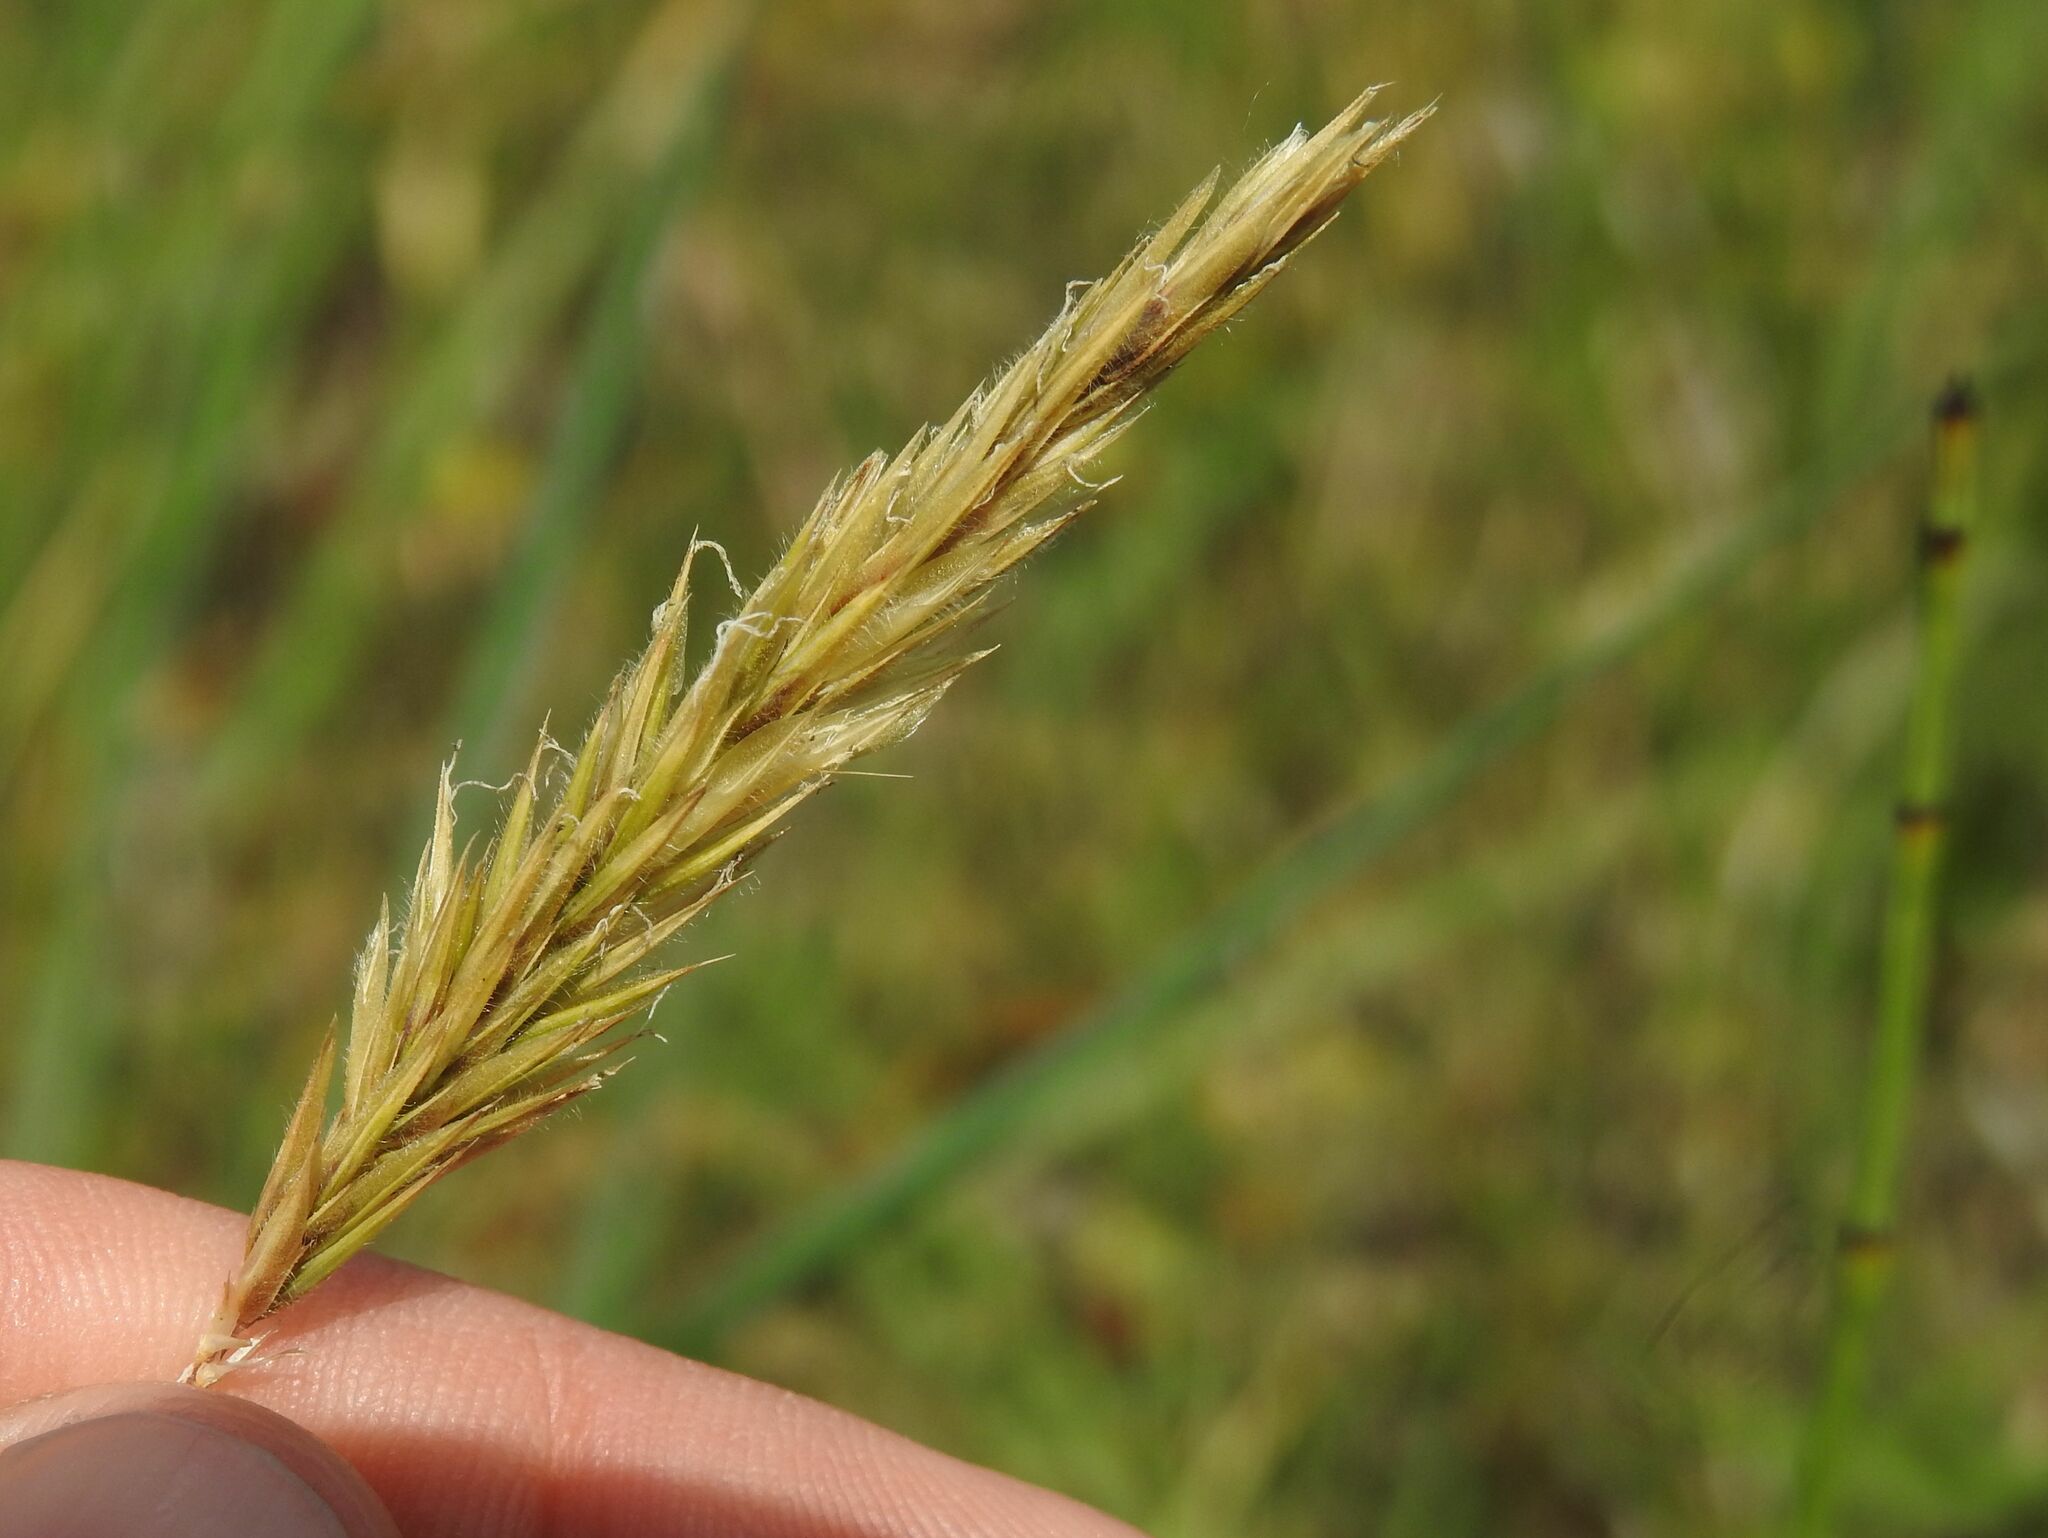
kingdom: Plantae
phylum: Tracheophyta
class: Liliopsida
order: Poales
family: Poaceae
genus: Anthoxanthum
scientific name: Anthoxanthum odoratum
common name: Sweet vernalgrass
